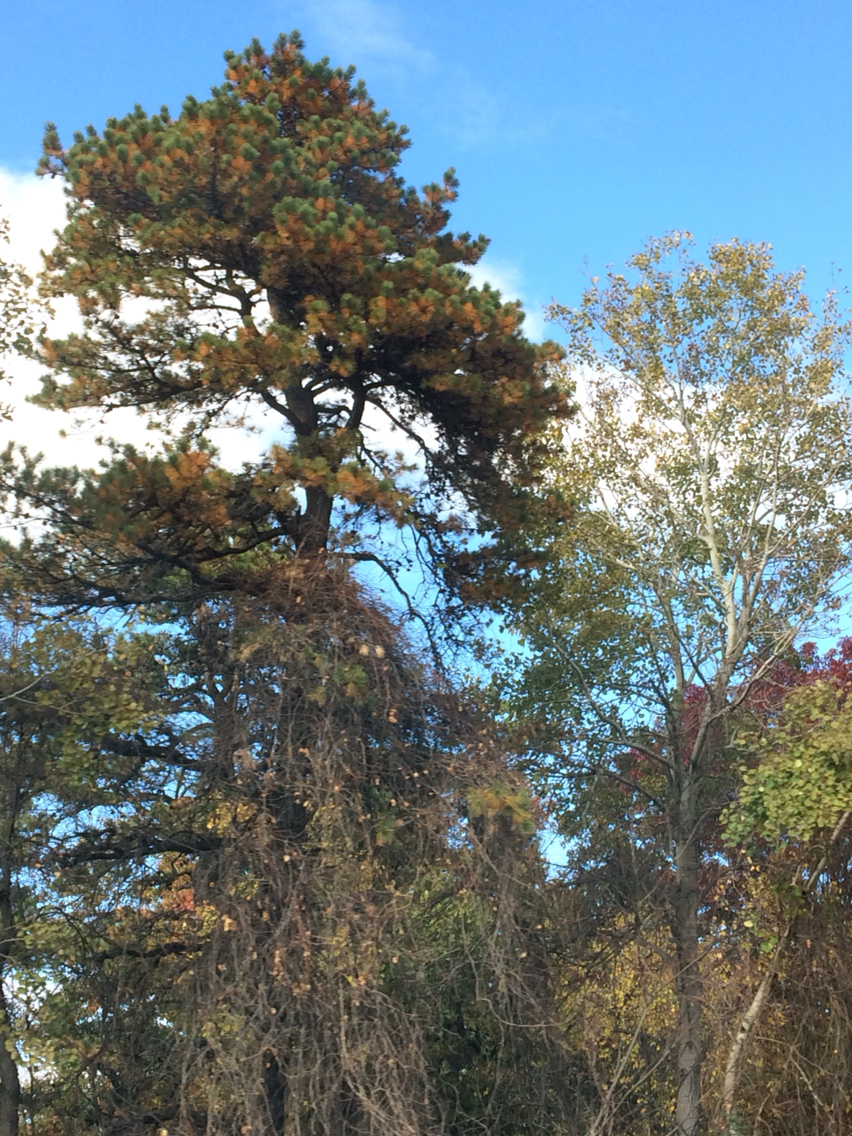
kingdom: Plantae
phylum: Tracheophyta
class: Pinopsida
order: Pinales
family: Pinaceae
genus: Pinus
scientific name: Pinus rigida
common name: Pitch pine
